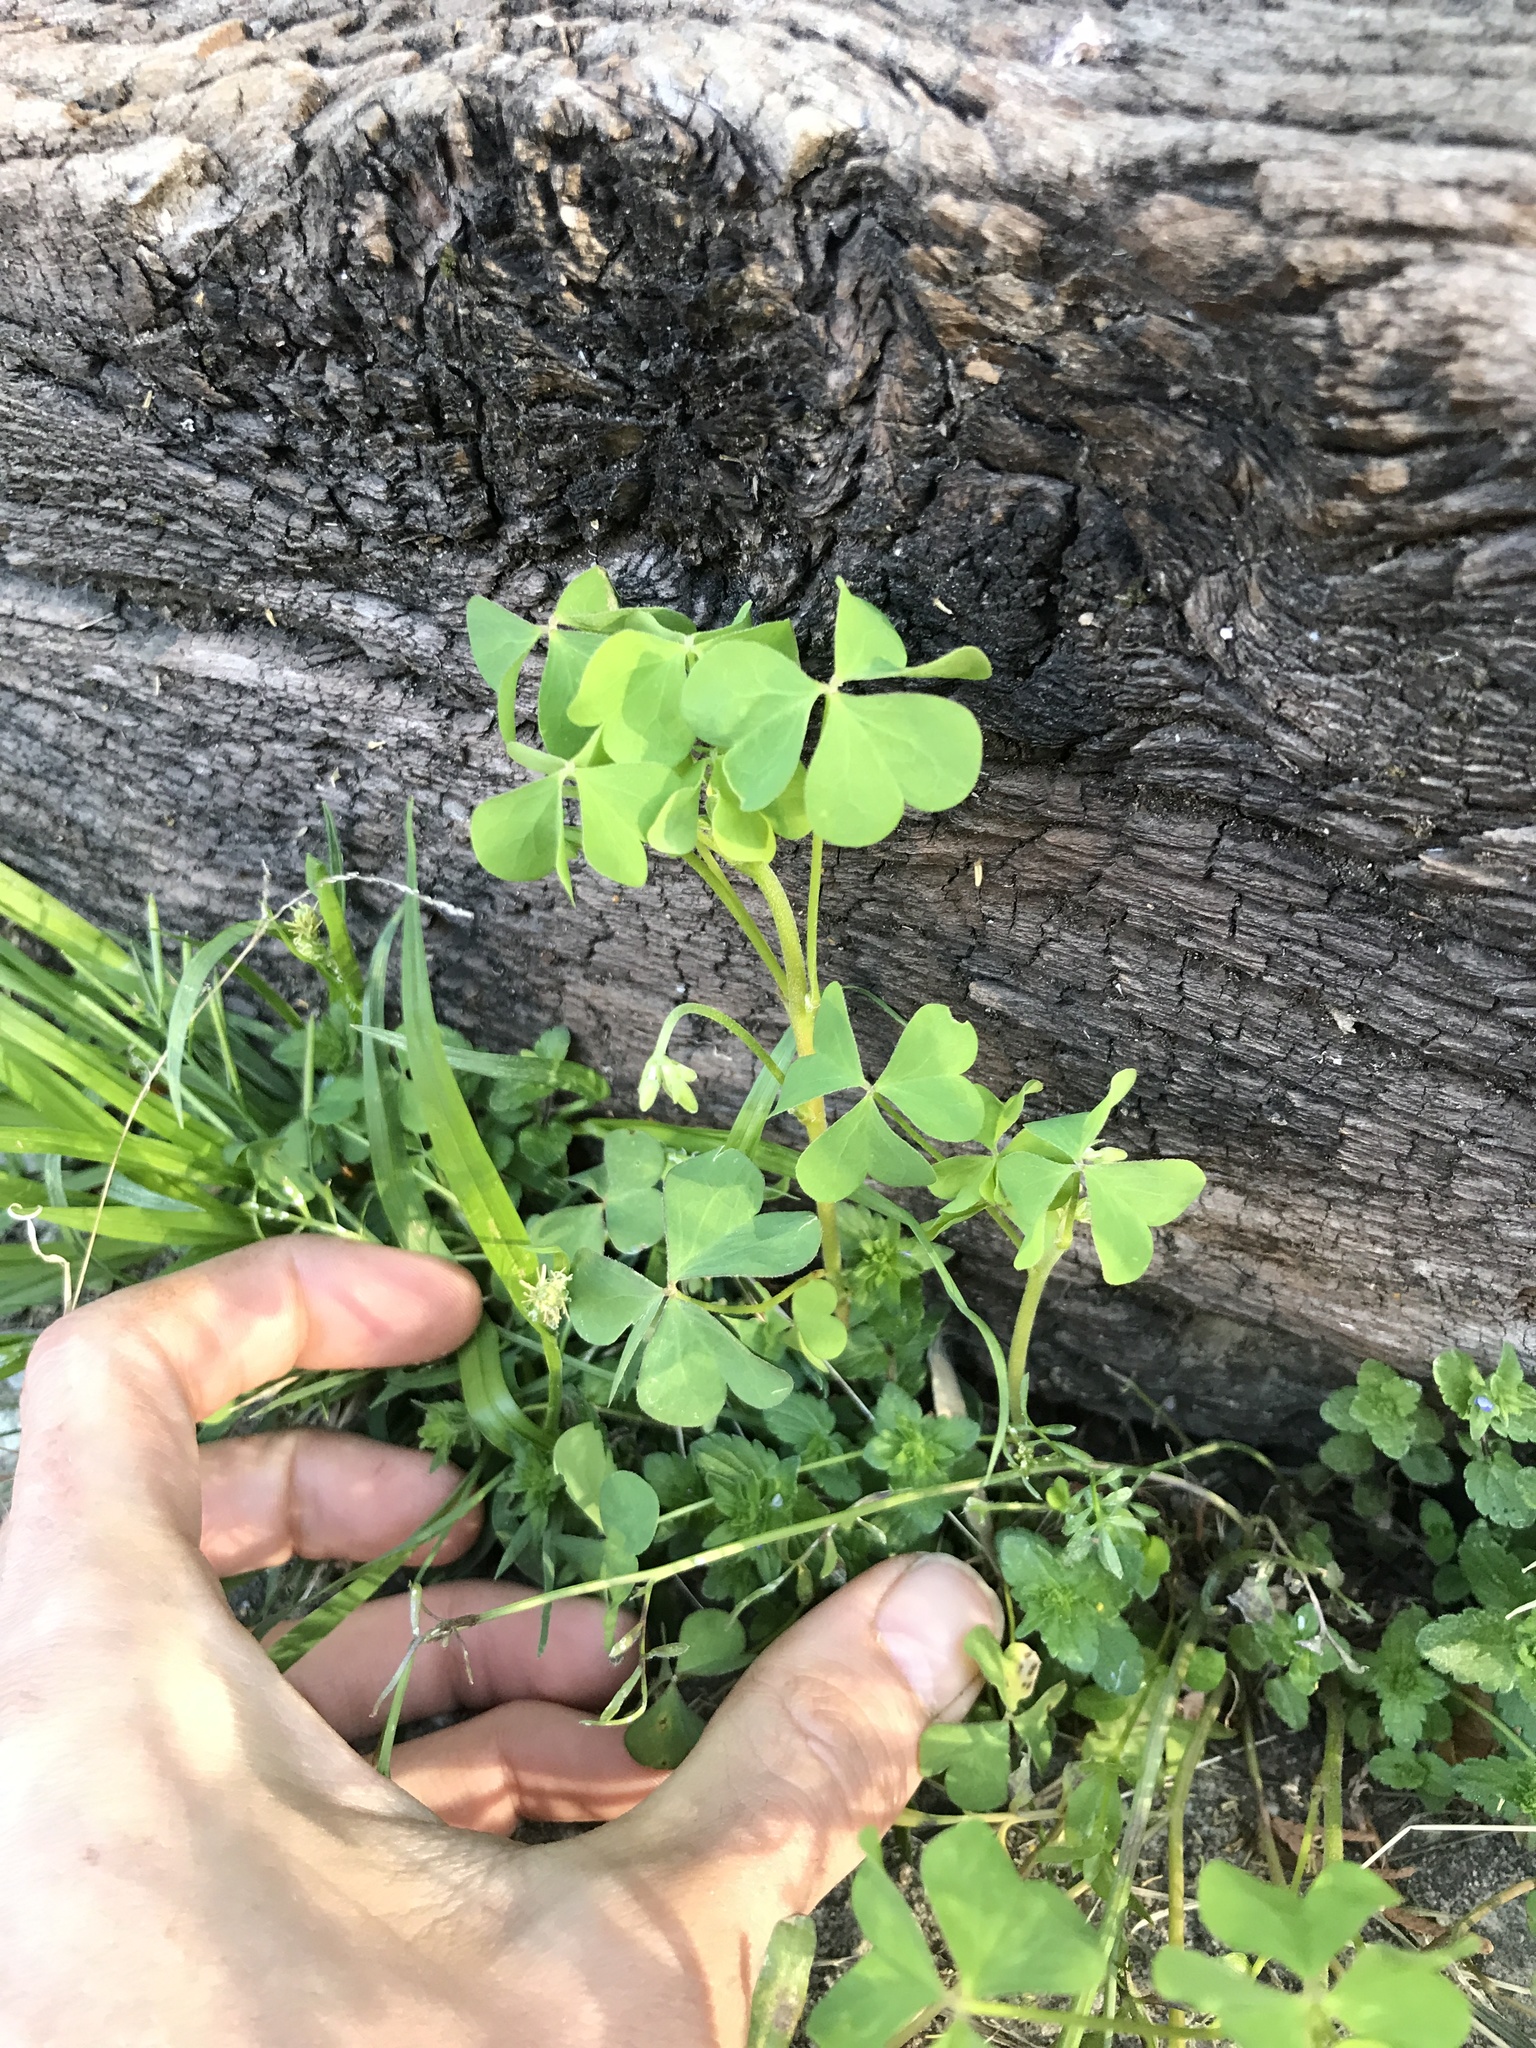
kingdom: Plantae
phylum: Tracheophyta
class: Magnoliopsida
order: Oxalidales
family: Oxalidaceae
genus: Oxalis
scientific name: Oxalis dillenii
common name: Sussex yellow-sorrel
